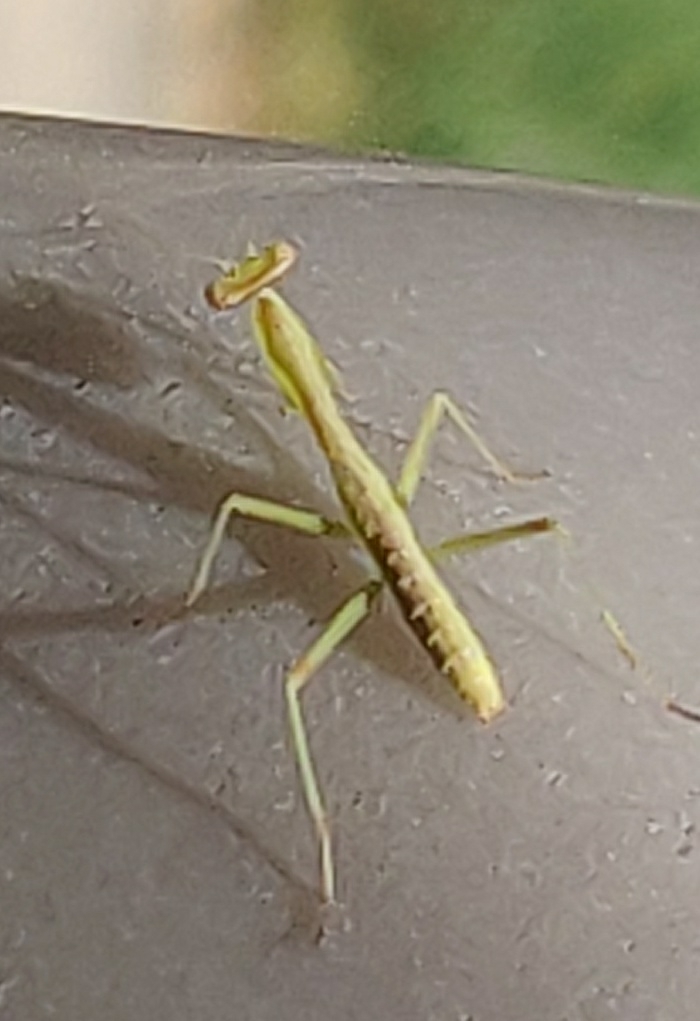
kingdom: Animalia
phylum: Arthropoda
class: Insecta
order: Mantodea
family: Mantidae
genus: Stagmomantis
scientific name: Stagmomantis carolina
